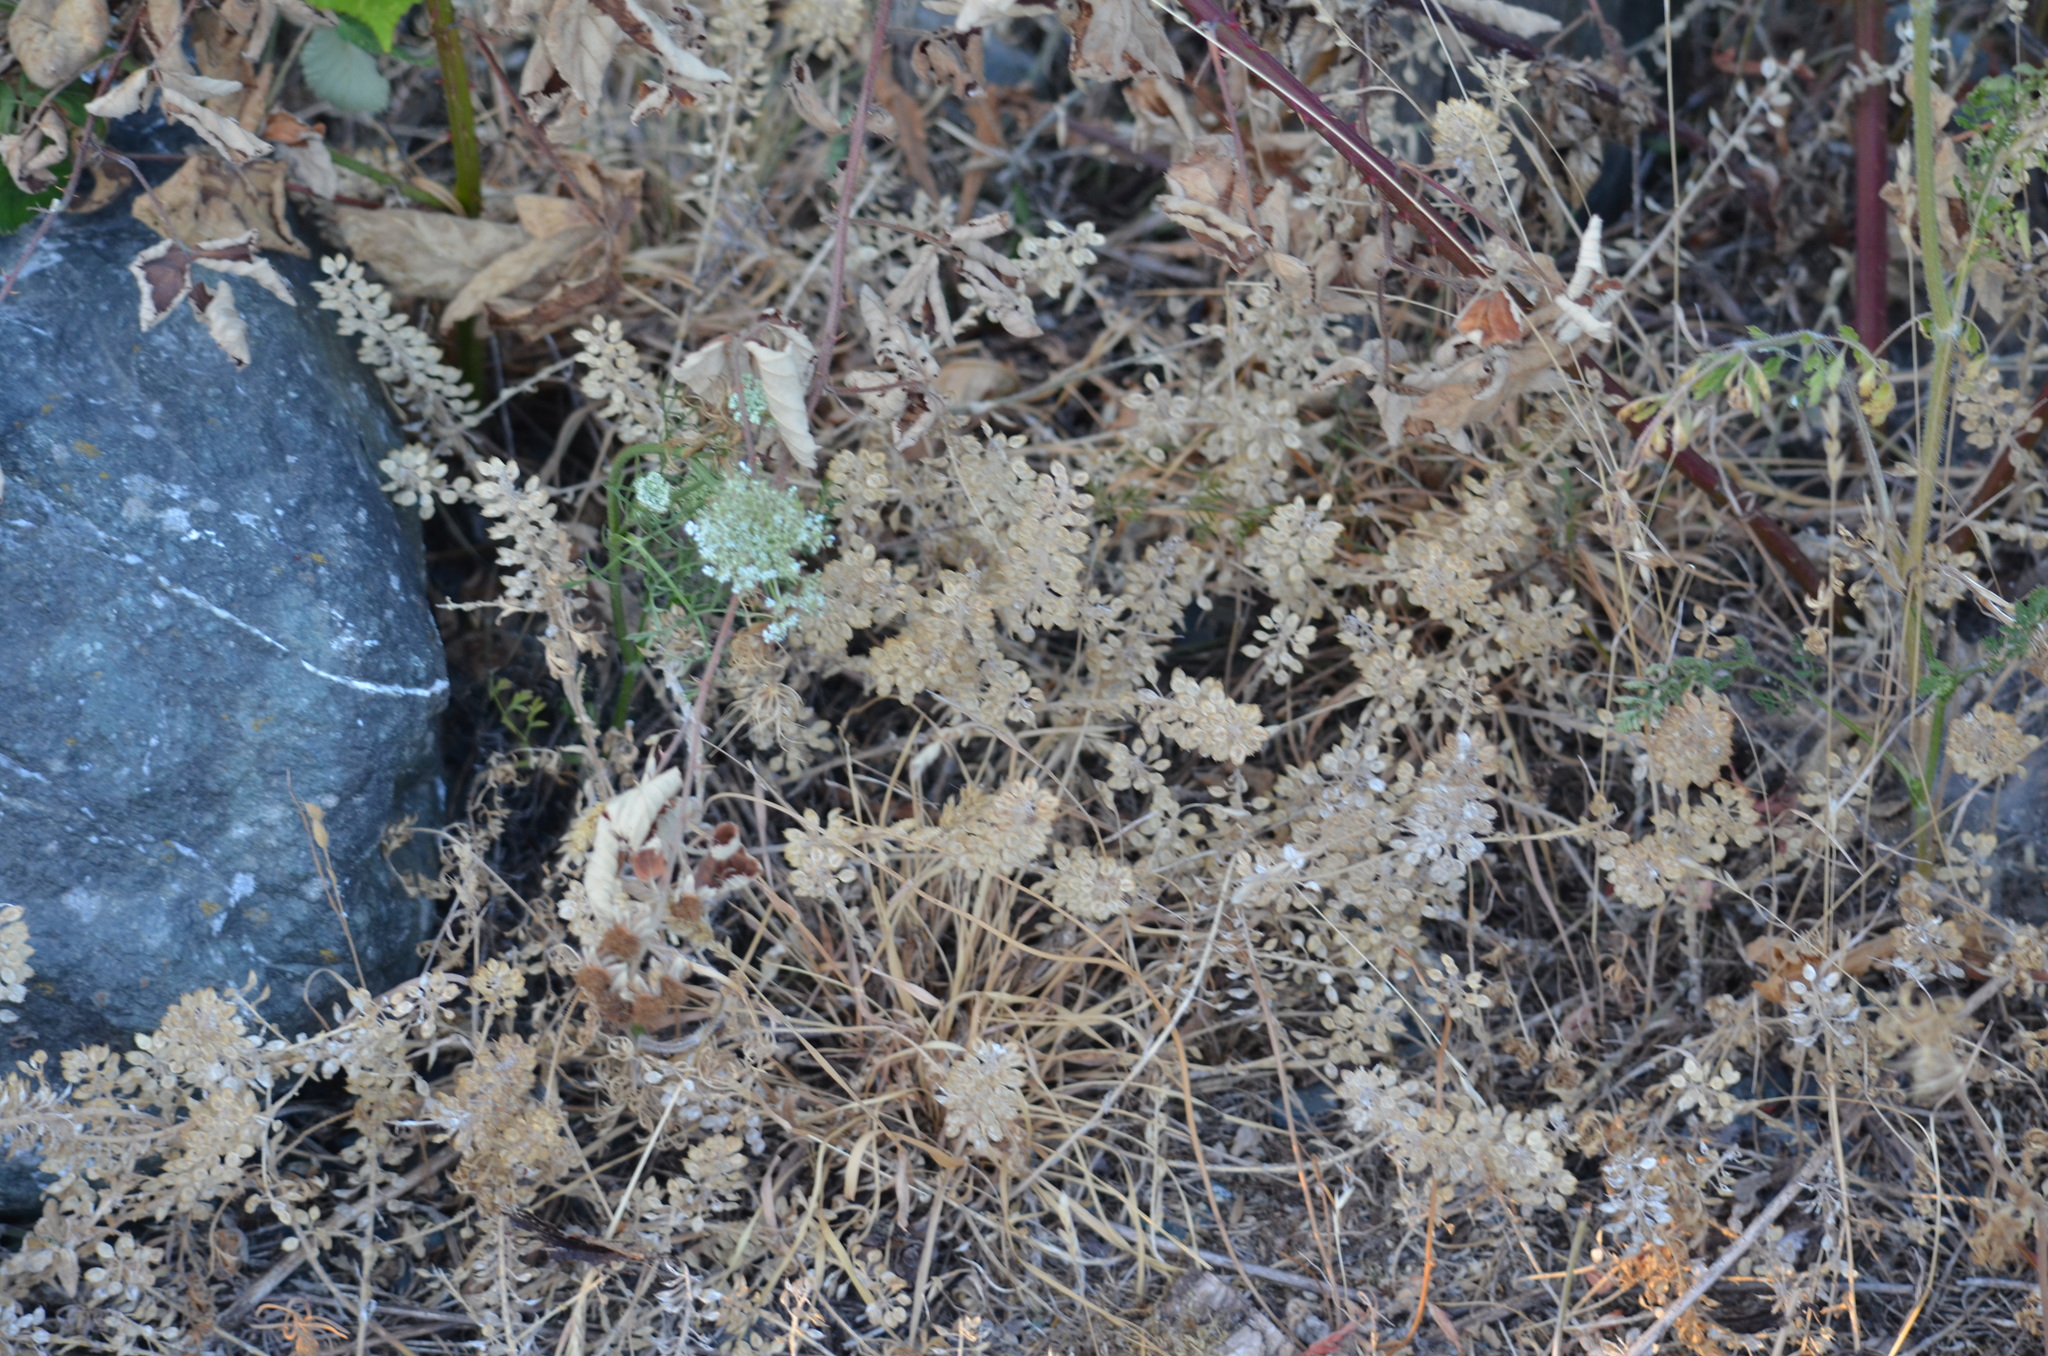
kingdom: Plantae
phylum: Tracheophyta
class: Magnoliopsida
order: Brassicales
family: Brassicaceae
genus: Lepidium
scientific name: Lepidium heterophyllum
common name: Smith's pepperwort
